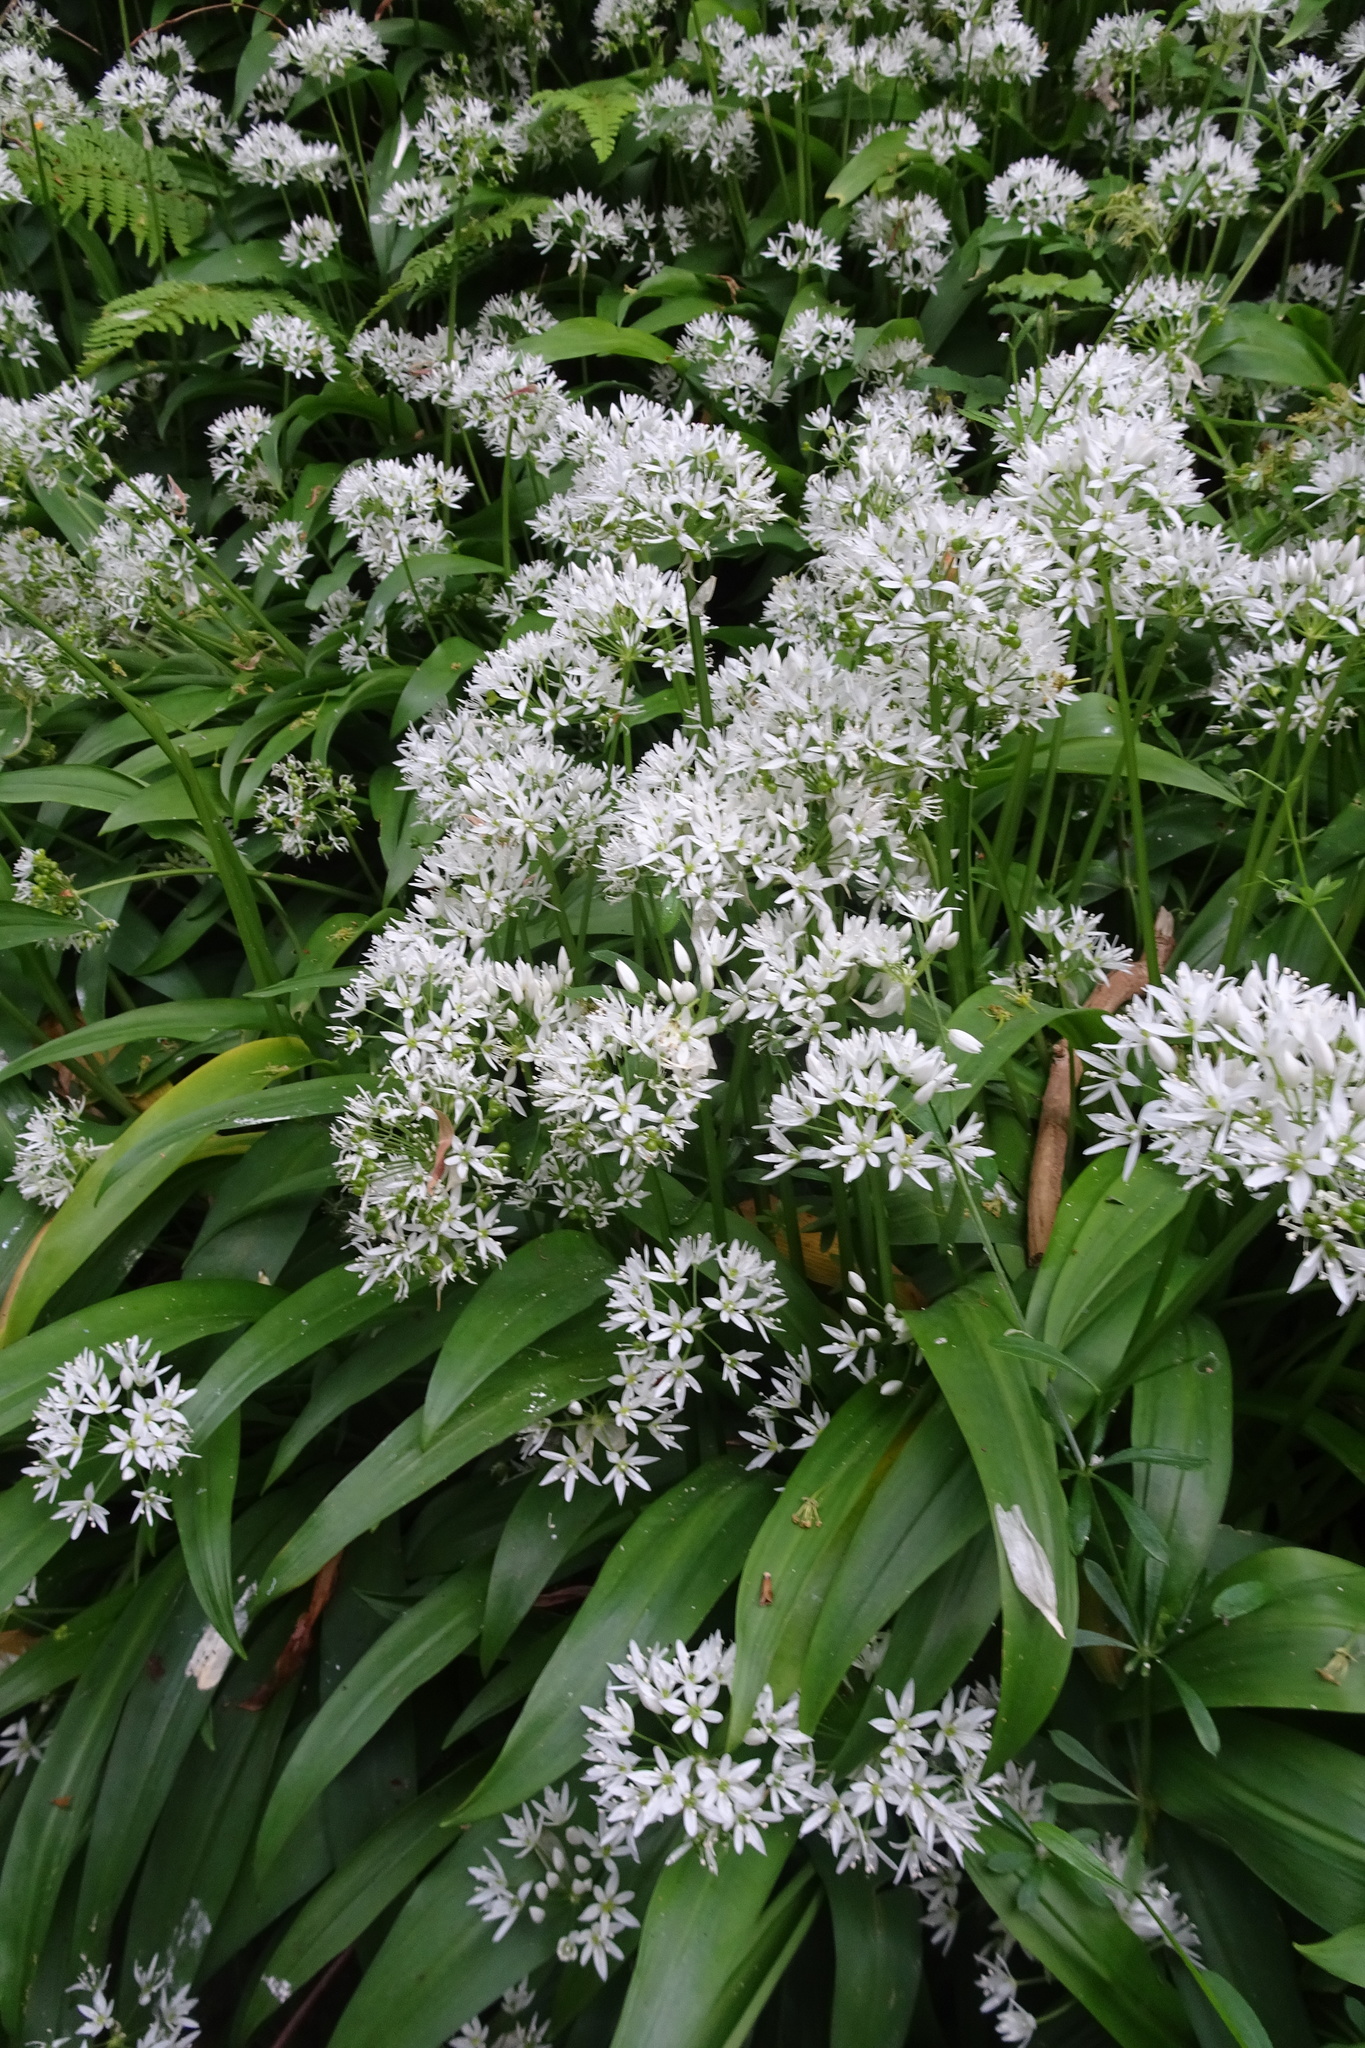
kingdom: Plantae
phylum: Tracheophyta
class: Liliopsida
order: Asparagales
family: Amaryllidaceae
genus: Allium
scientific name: Allium ursinum
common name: Ramsons
